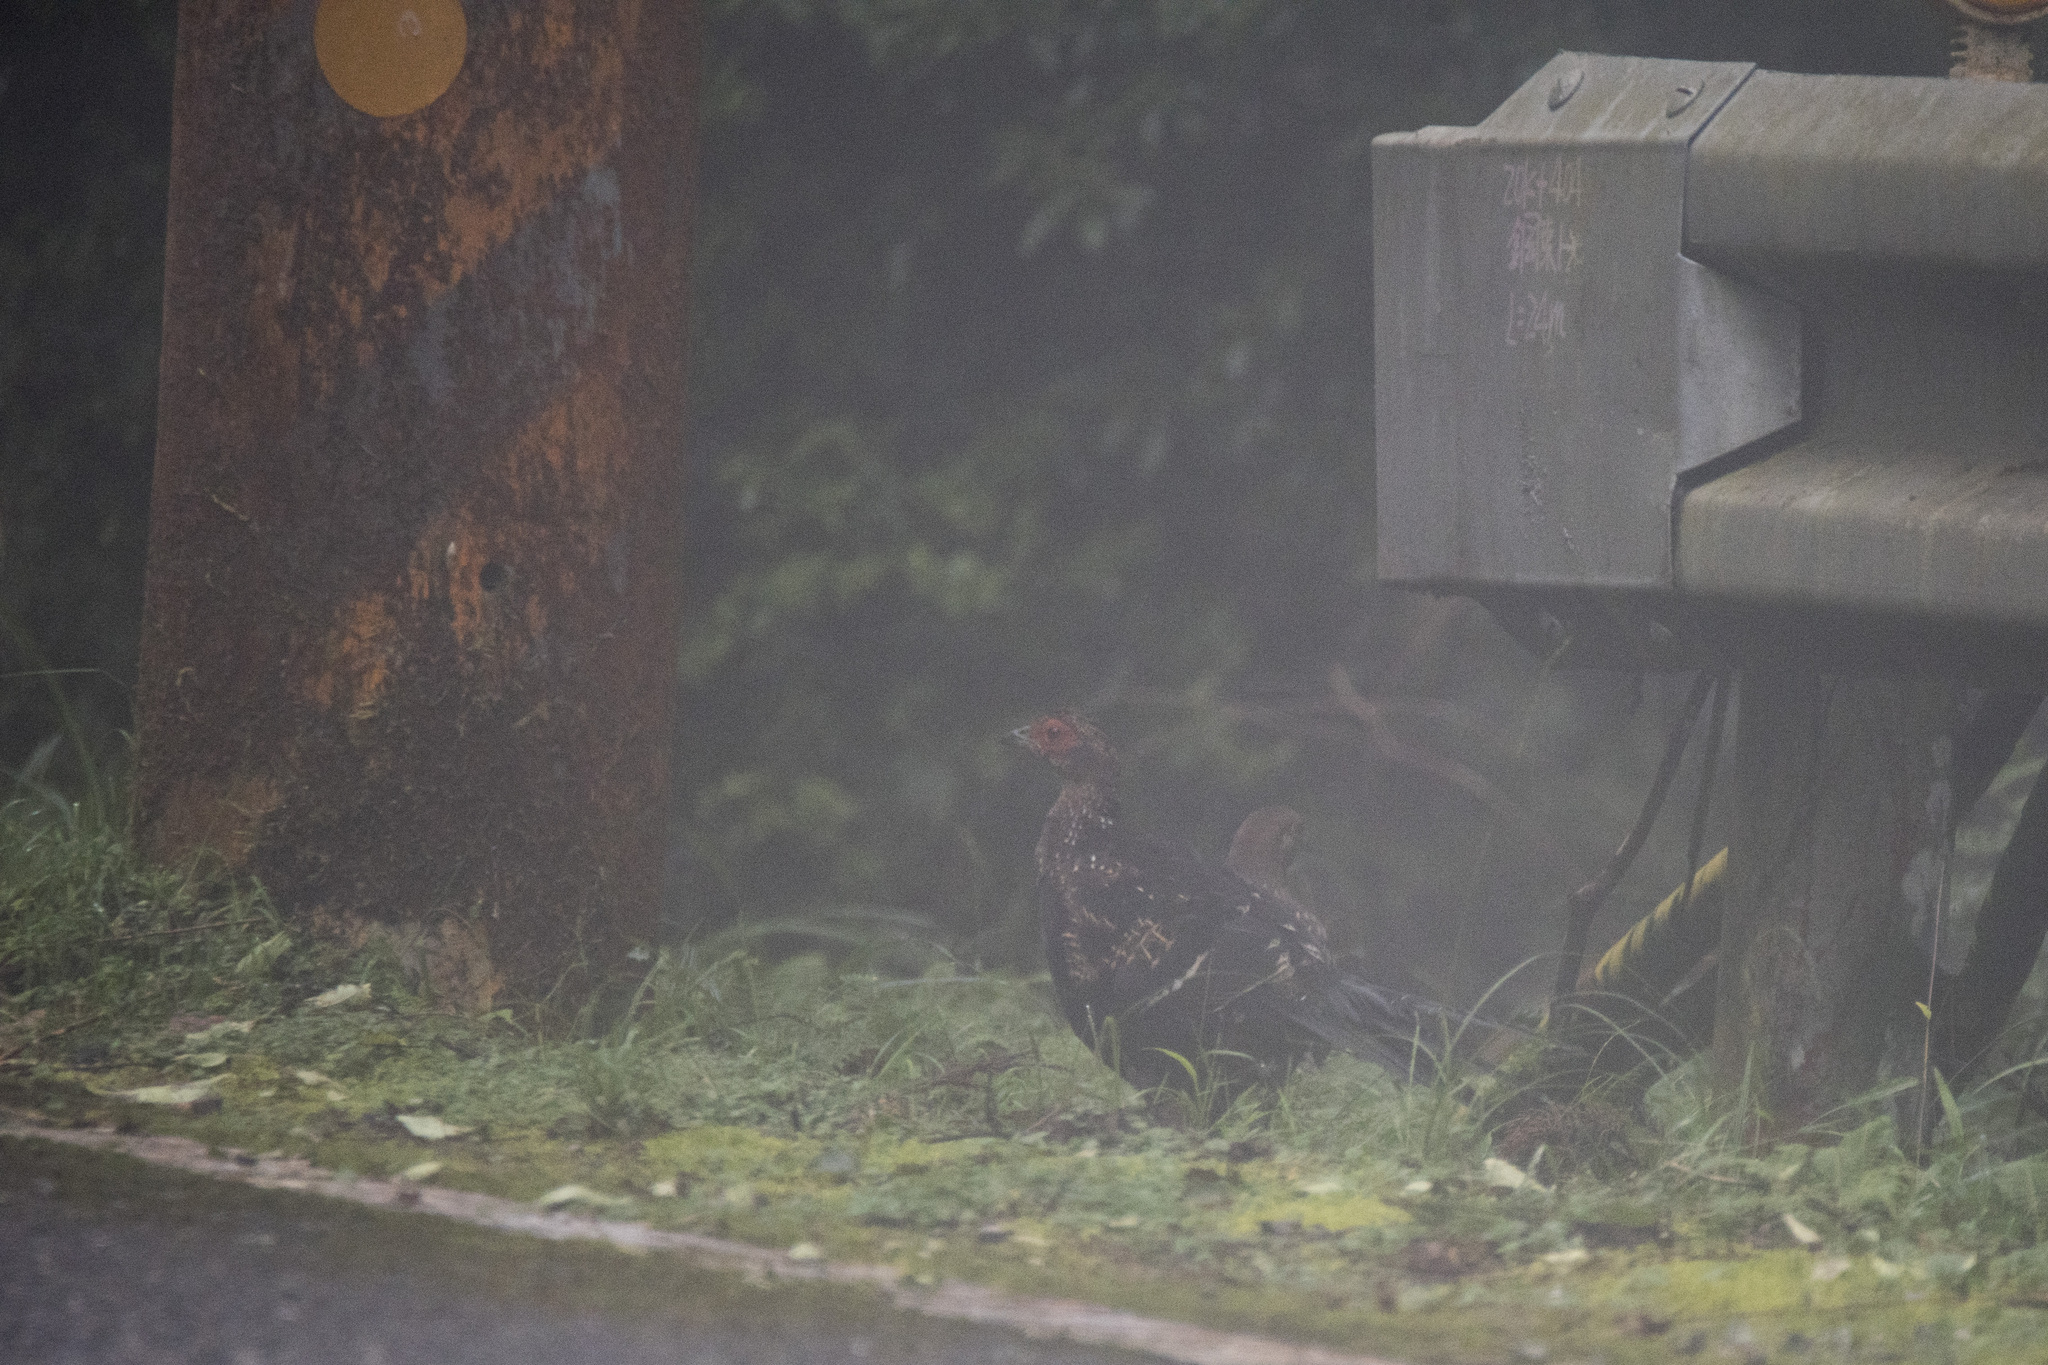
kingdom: Animalia
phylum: Chordata
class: Aves
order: Galliformes
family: Phasianidae
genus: Syrmaticus
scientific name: Syrmaticus mikado
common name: Mikado pheasant
